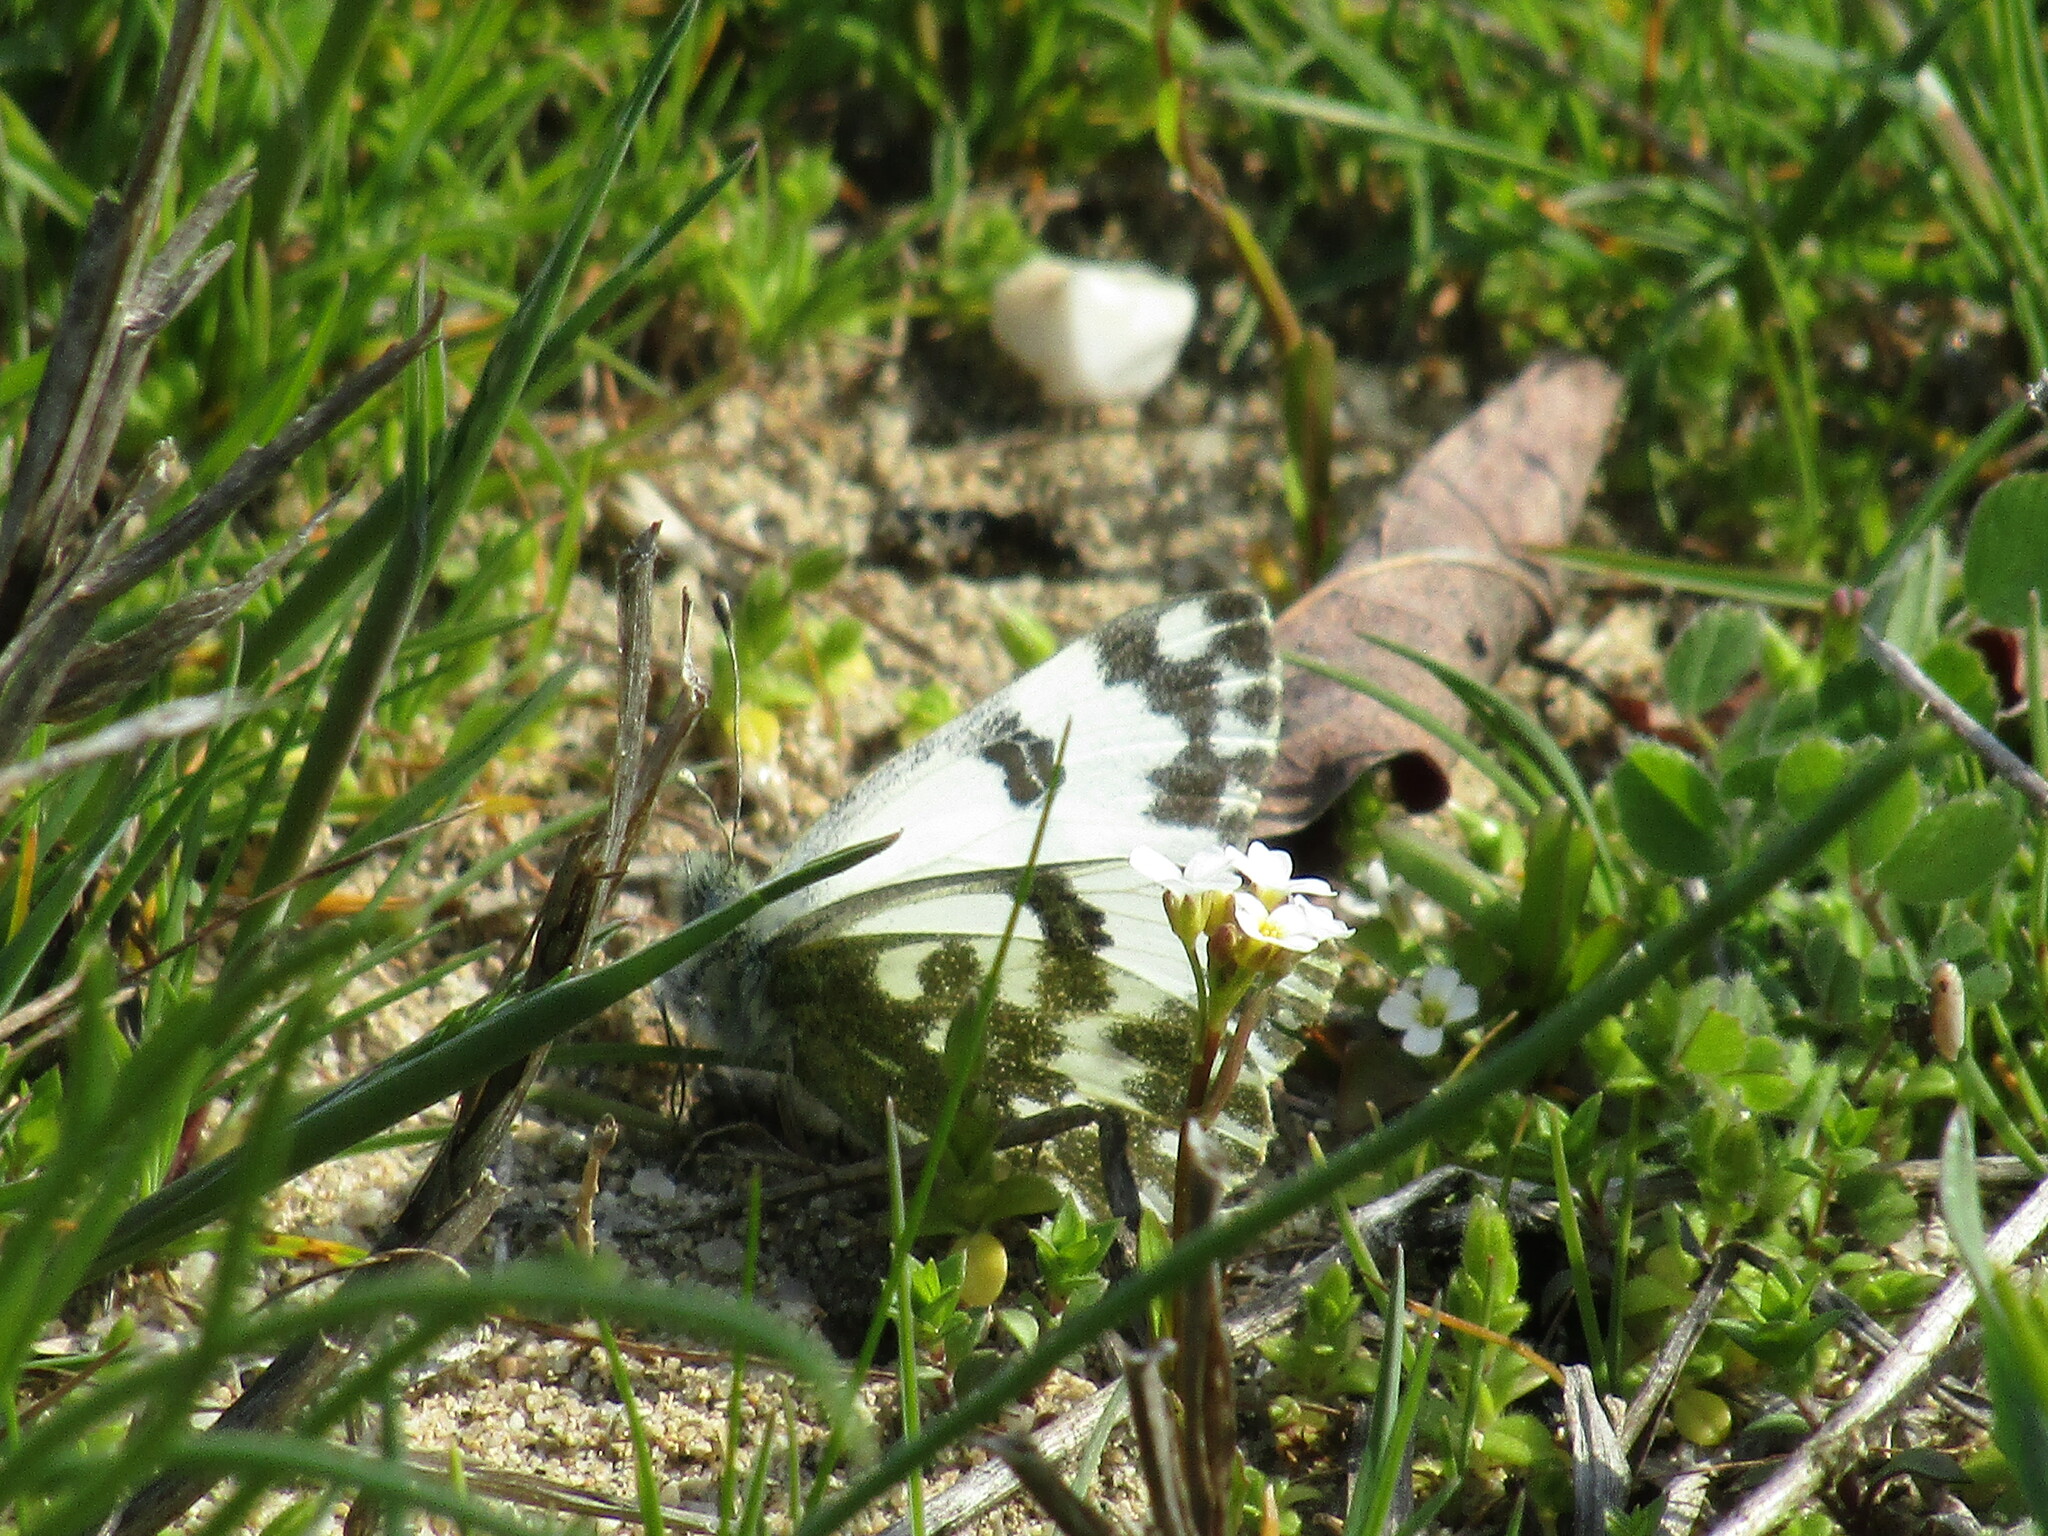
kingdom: Animalia
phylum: Arthropoda
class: Insecta
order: Lepidoptera
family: Pieridae
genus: Pontia
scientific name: Pontia edusa
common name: Eastern bath white
